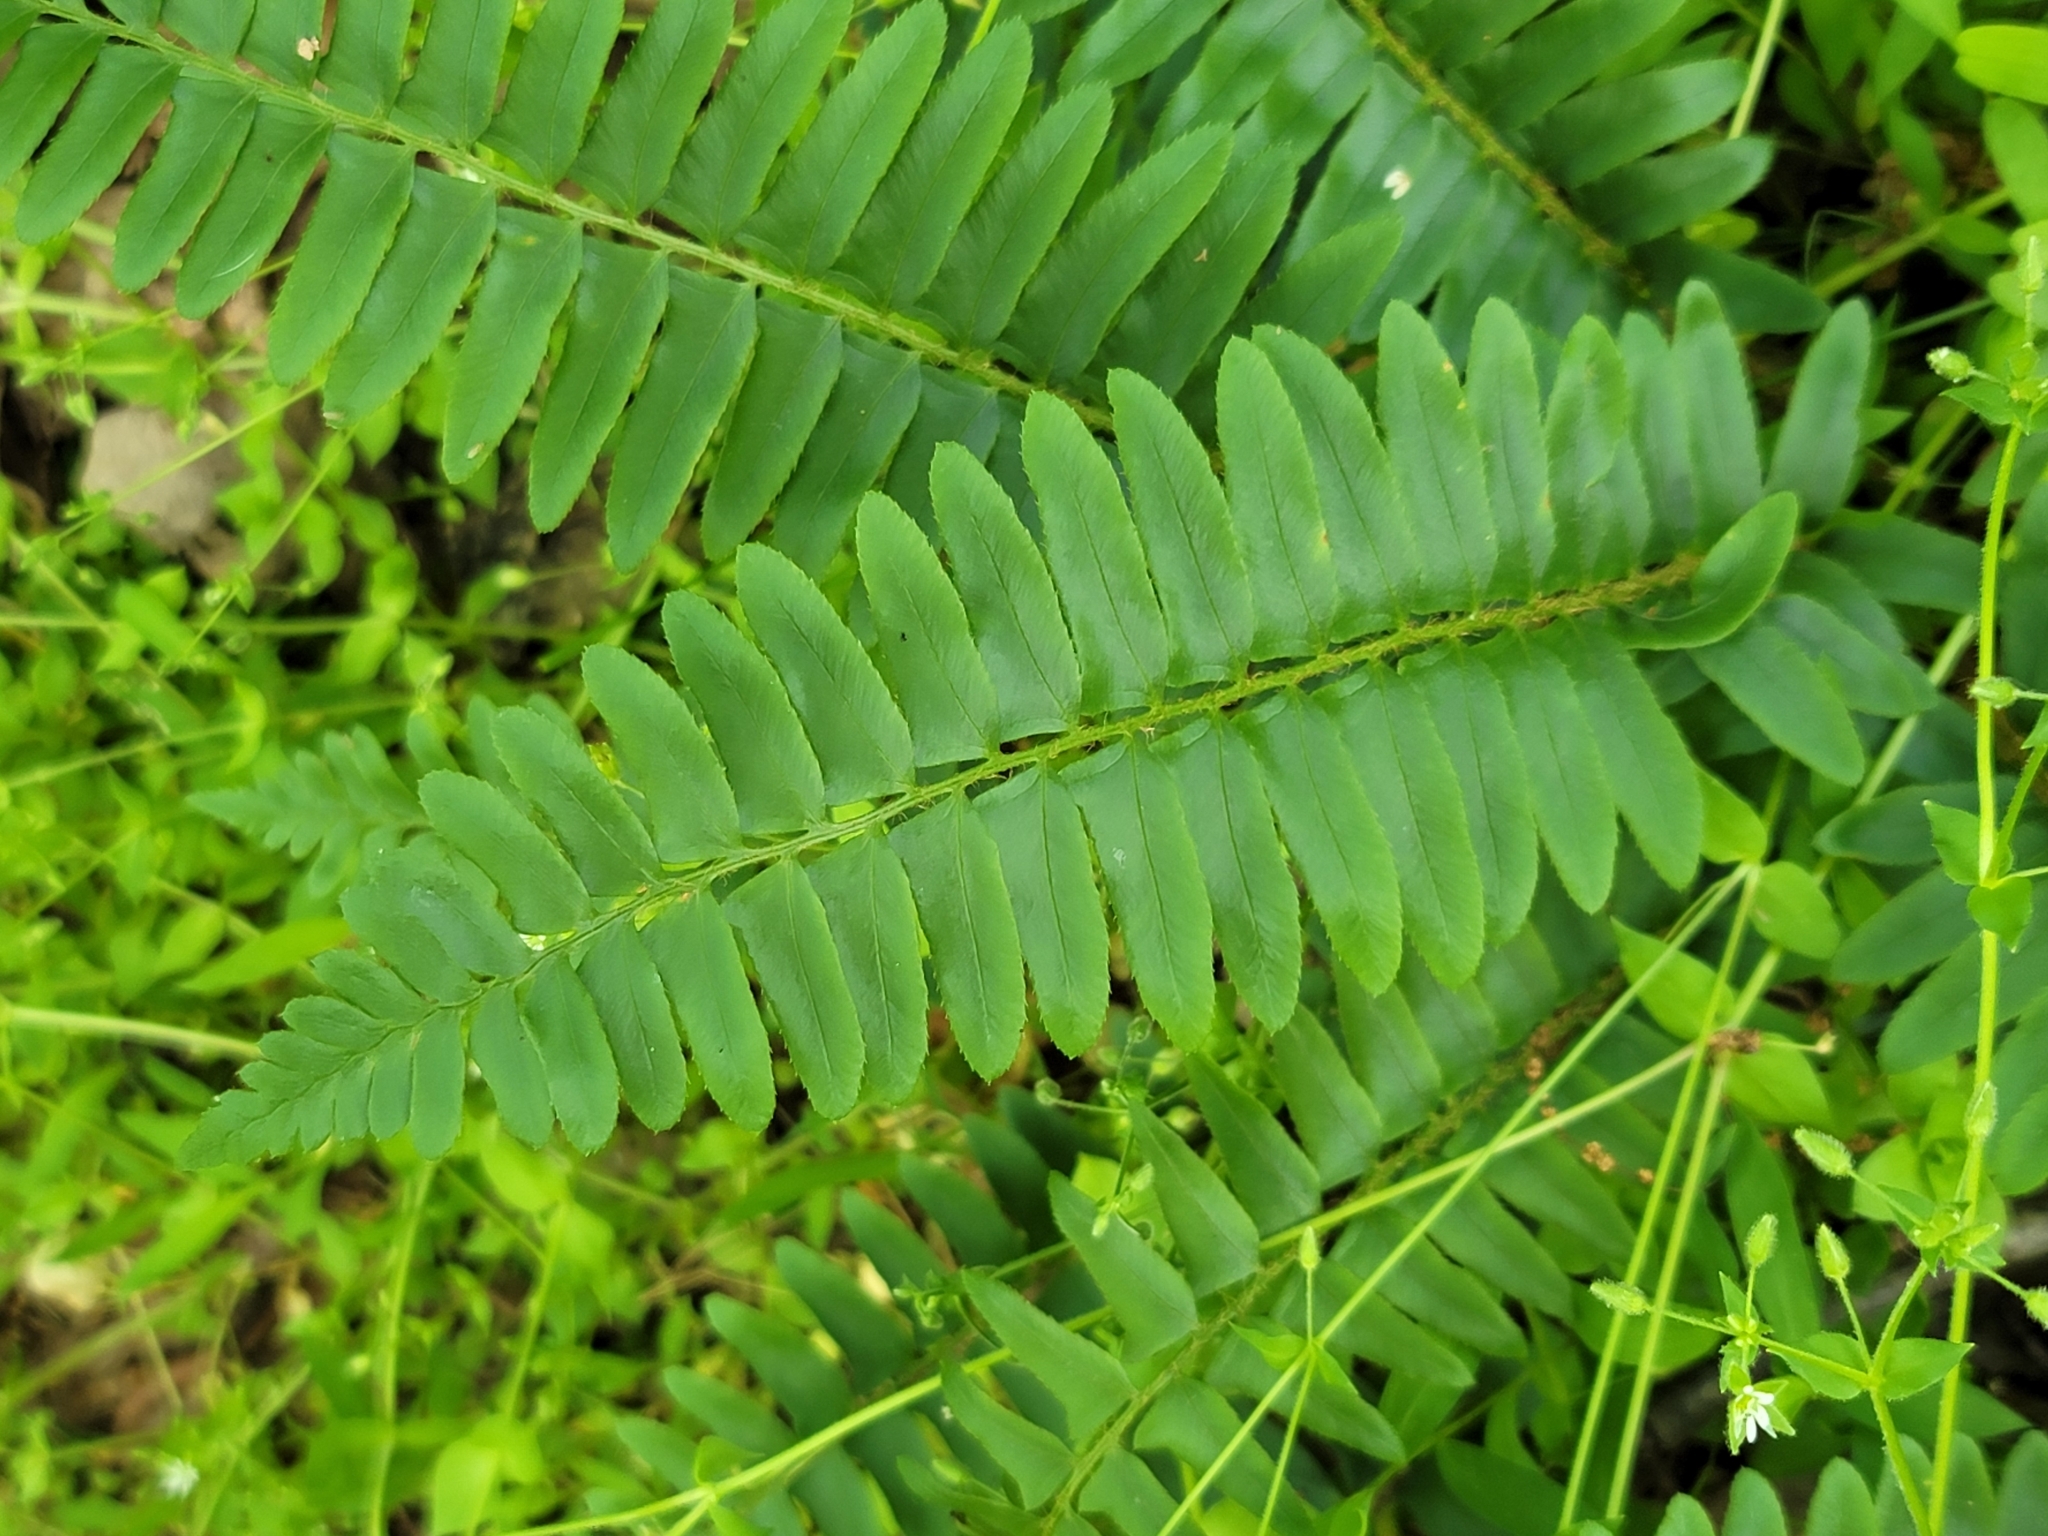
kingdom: Plantae
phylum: Tracheophyta
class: Polypodiopsida
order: Polypodiales
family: Dryopteridaceae
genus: Polystichum
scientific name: Polystichum acrostichoides
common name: Christmas fern
